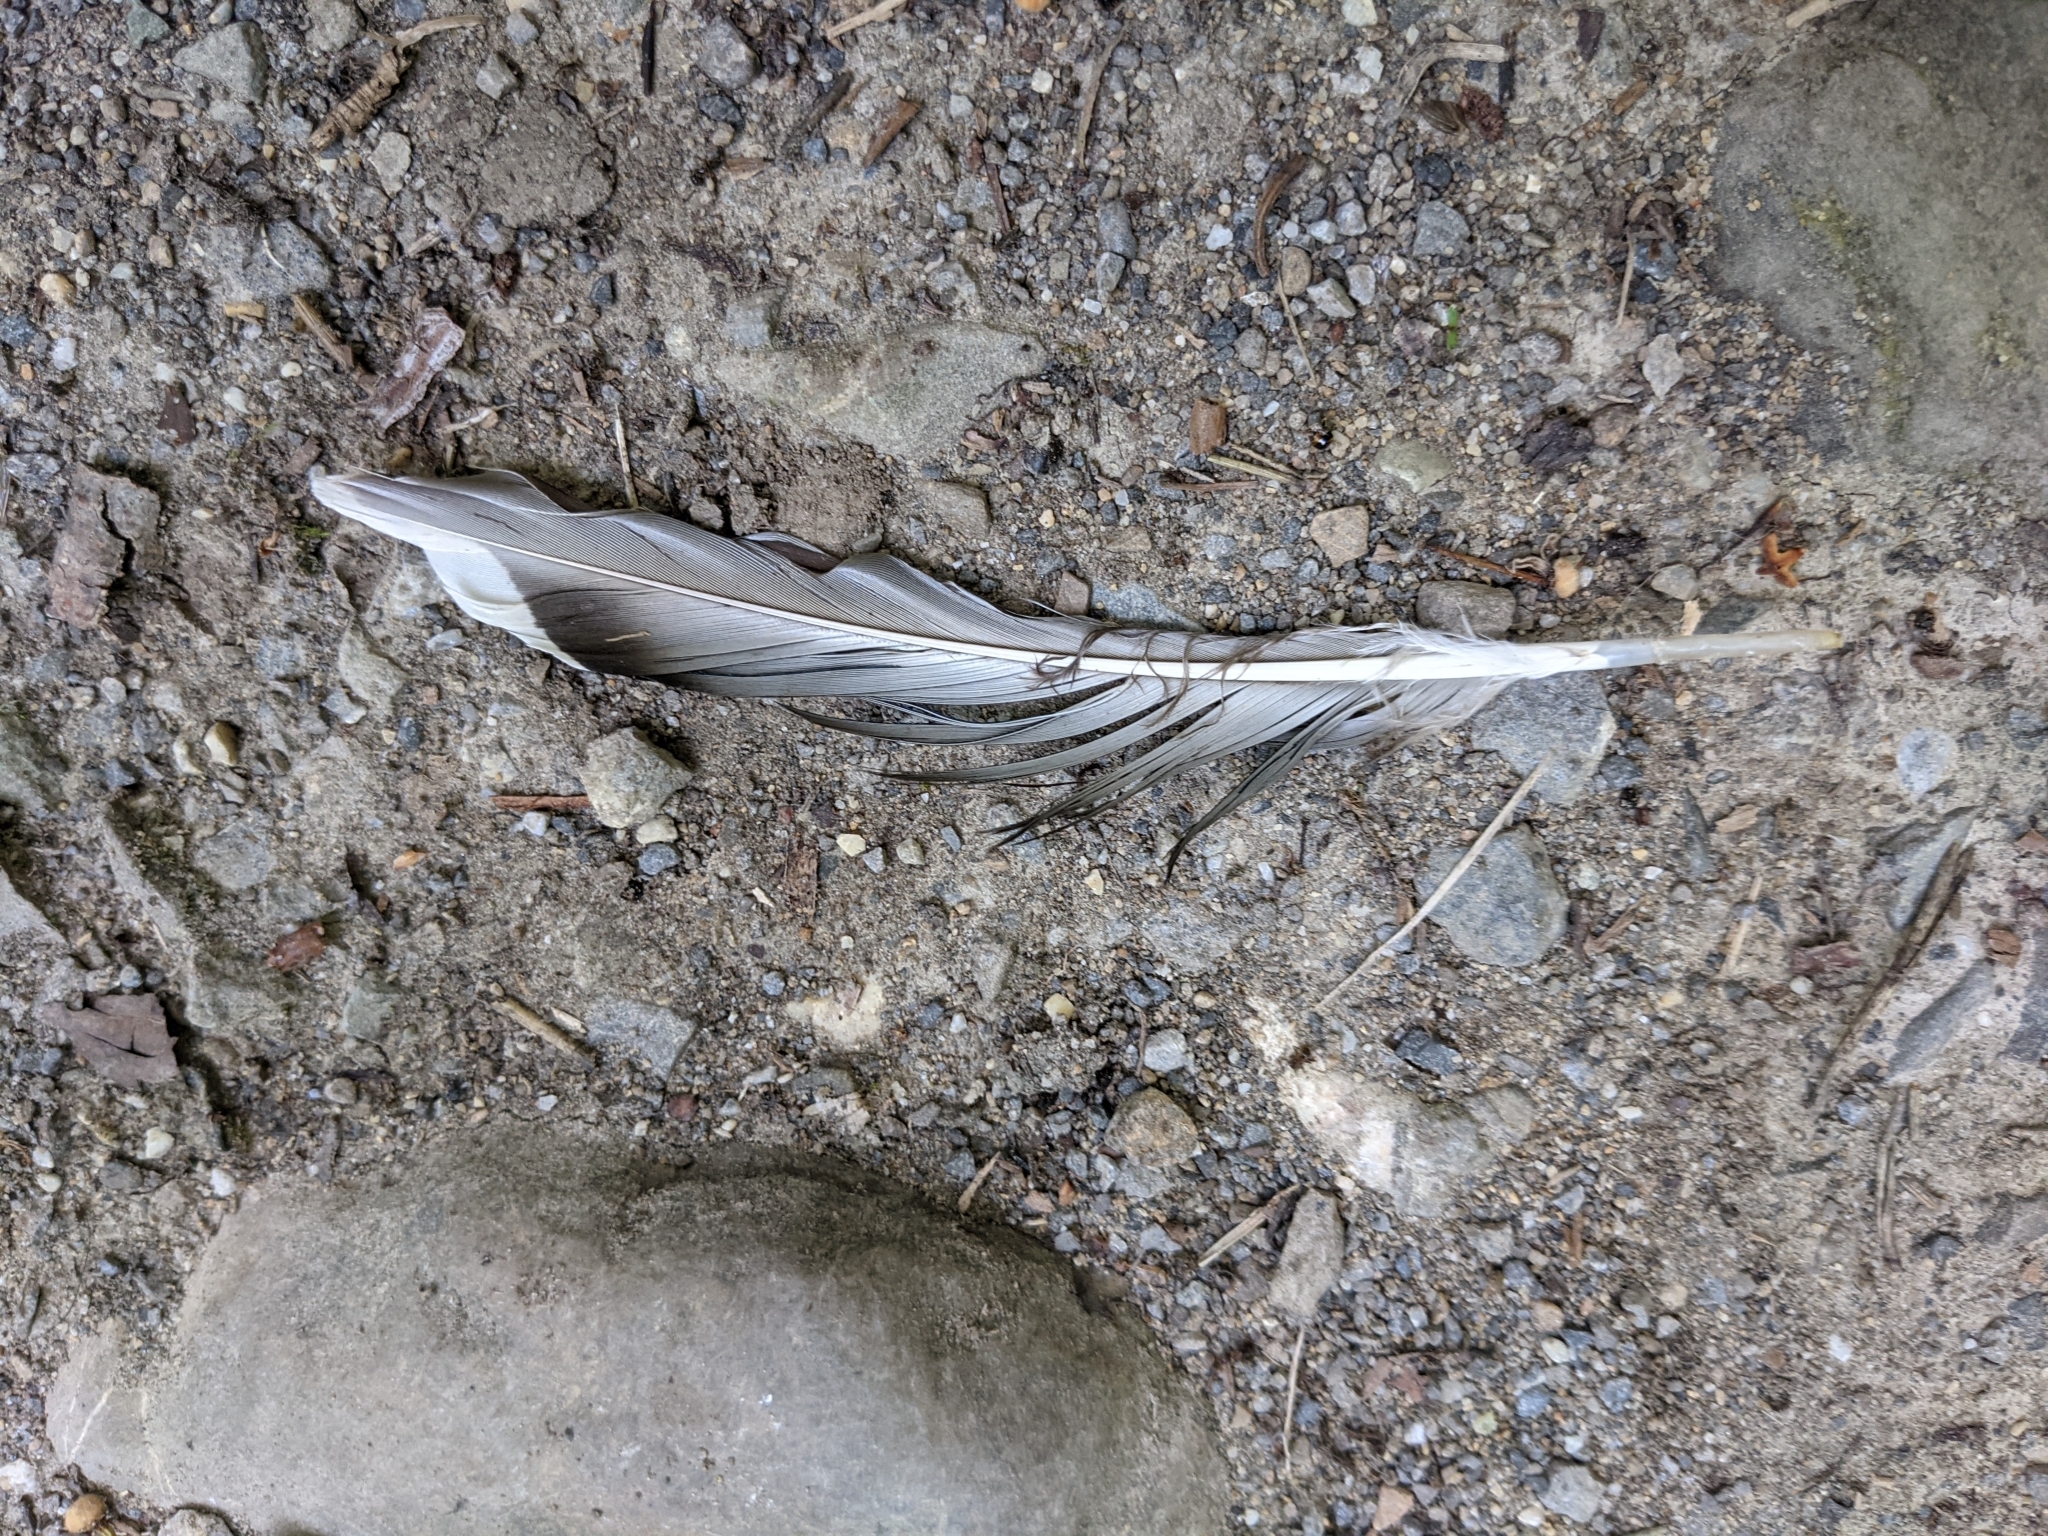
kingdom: Animalia
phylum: Chordata
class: Aves
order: Anseriformes
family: Anatidae
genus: Anas
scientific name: Anas platyrhynchos
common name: Mallard
